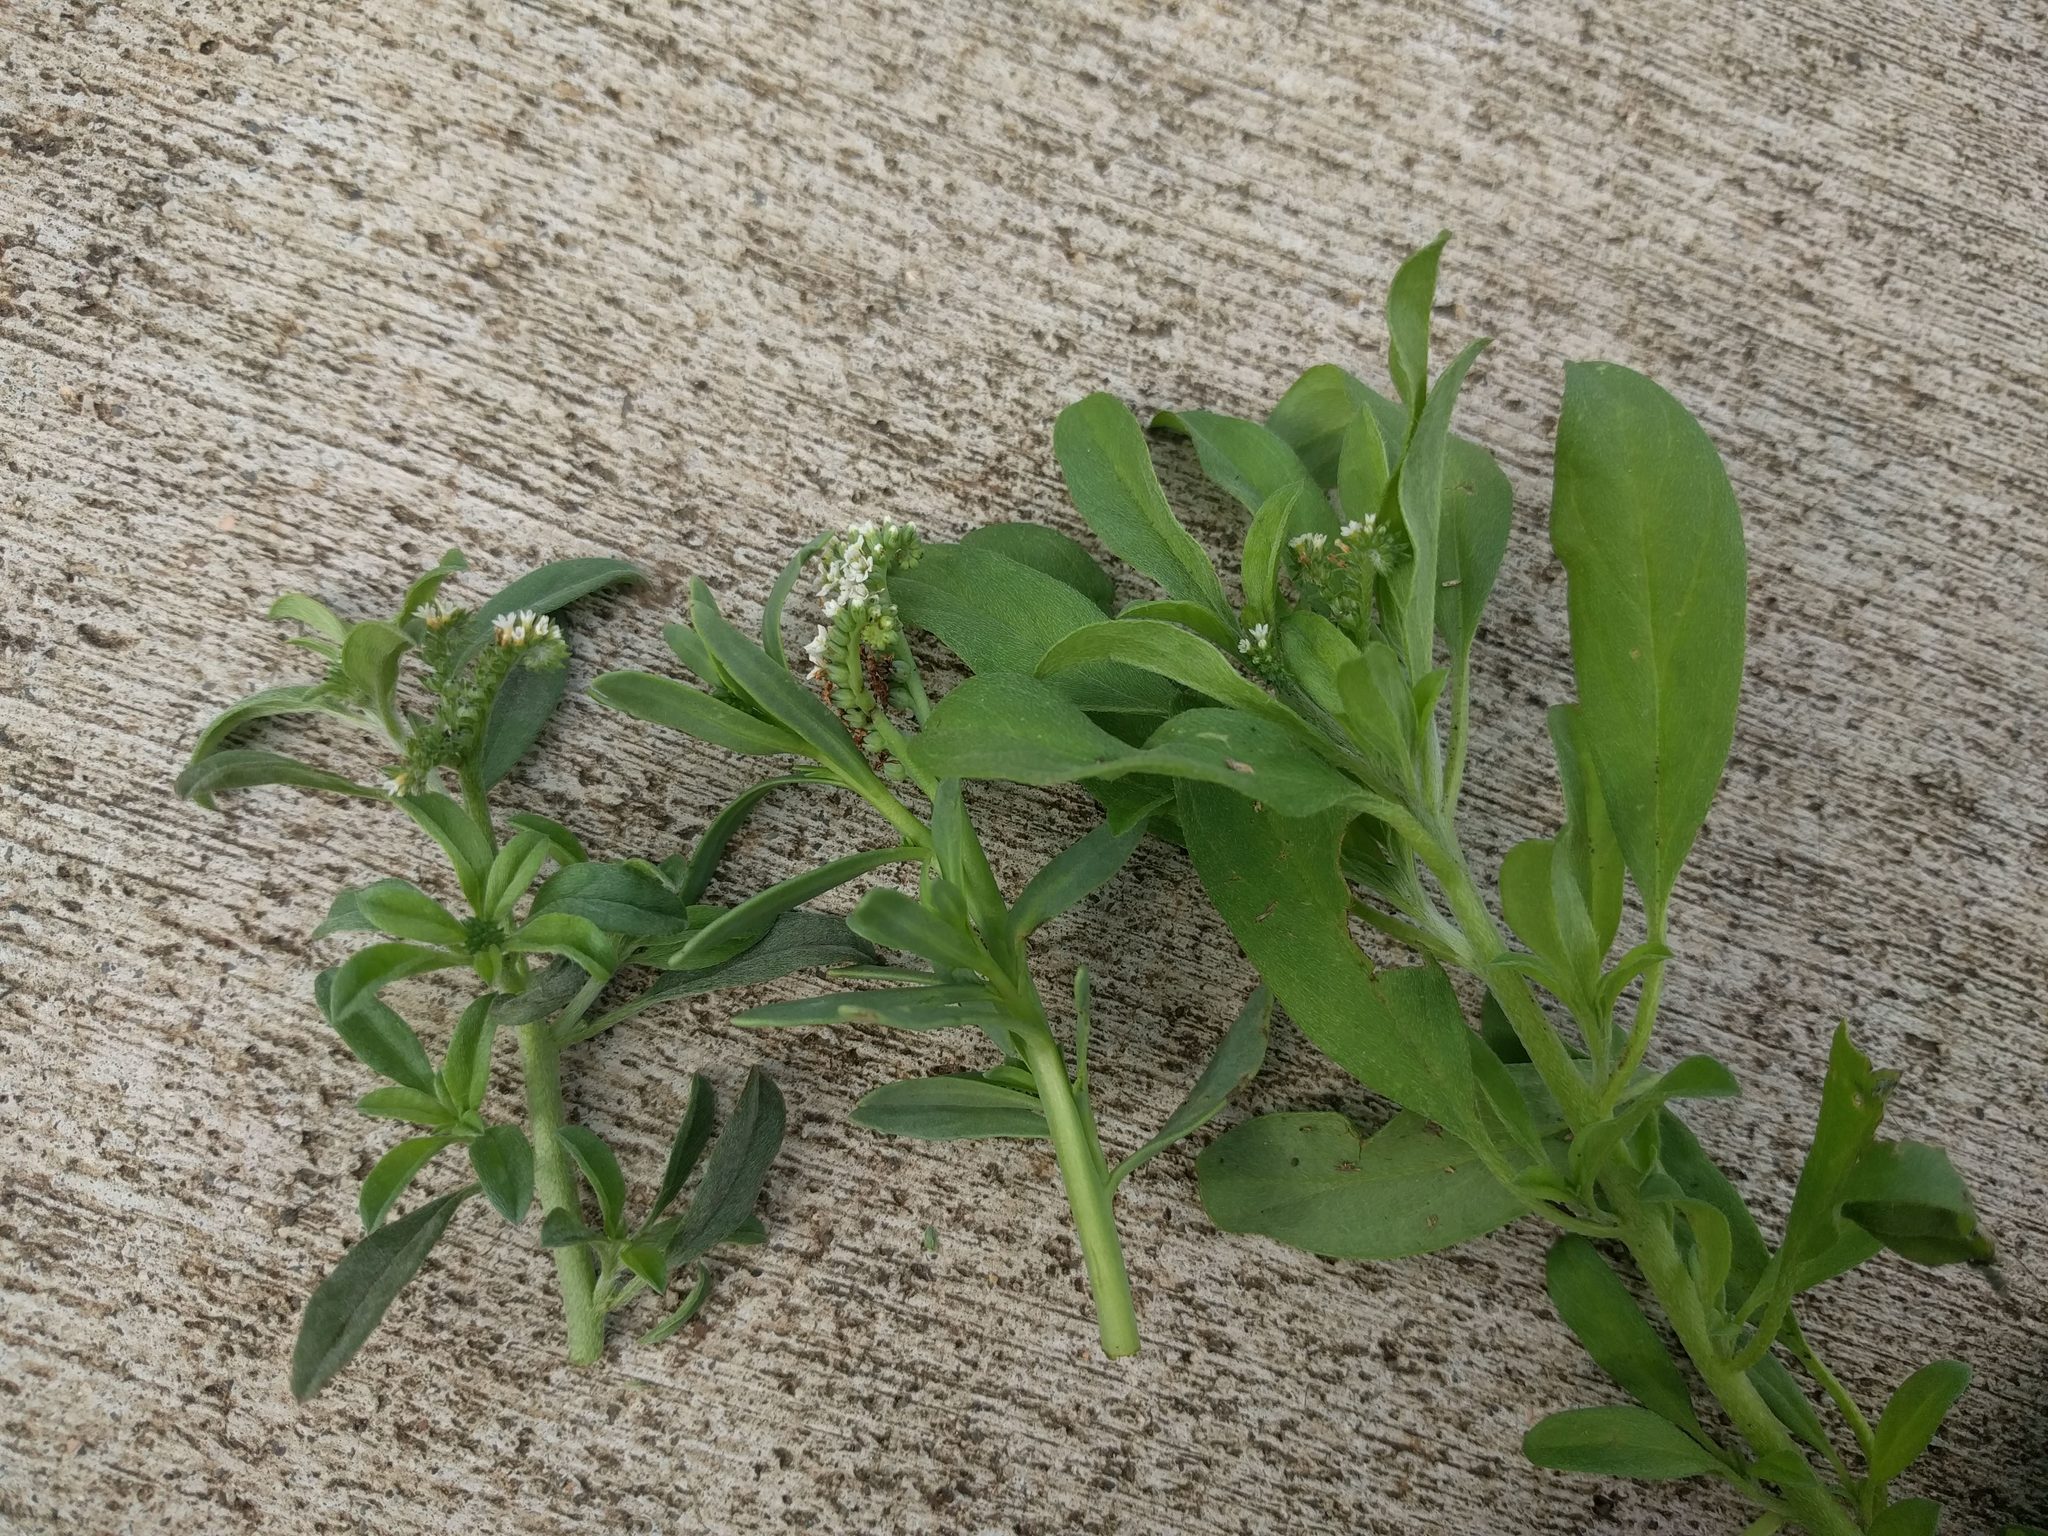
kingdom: Plantae
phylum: Tracheophyta
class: Magnoliopsida
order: Boraginales
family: Heliotropiaceae
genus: Euploca
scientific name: Euploca procumbens
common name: Fourspike heliotrope
